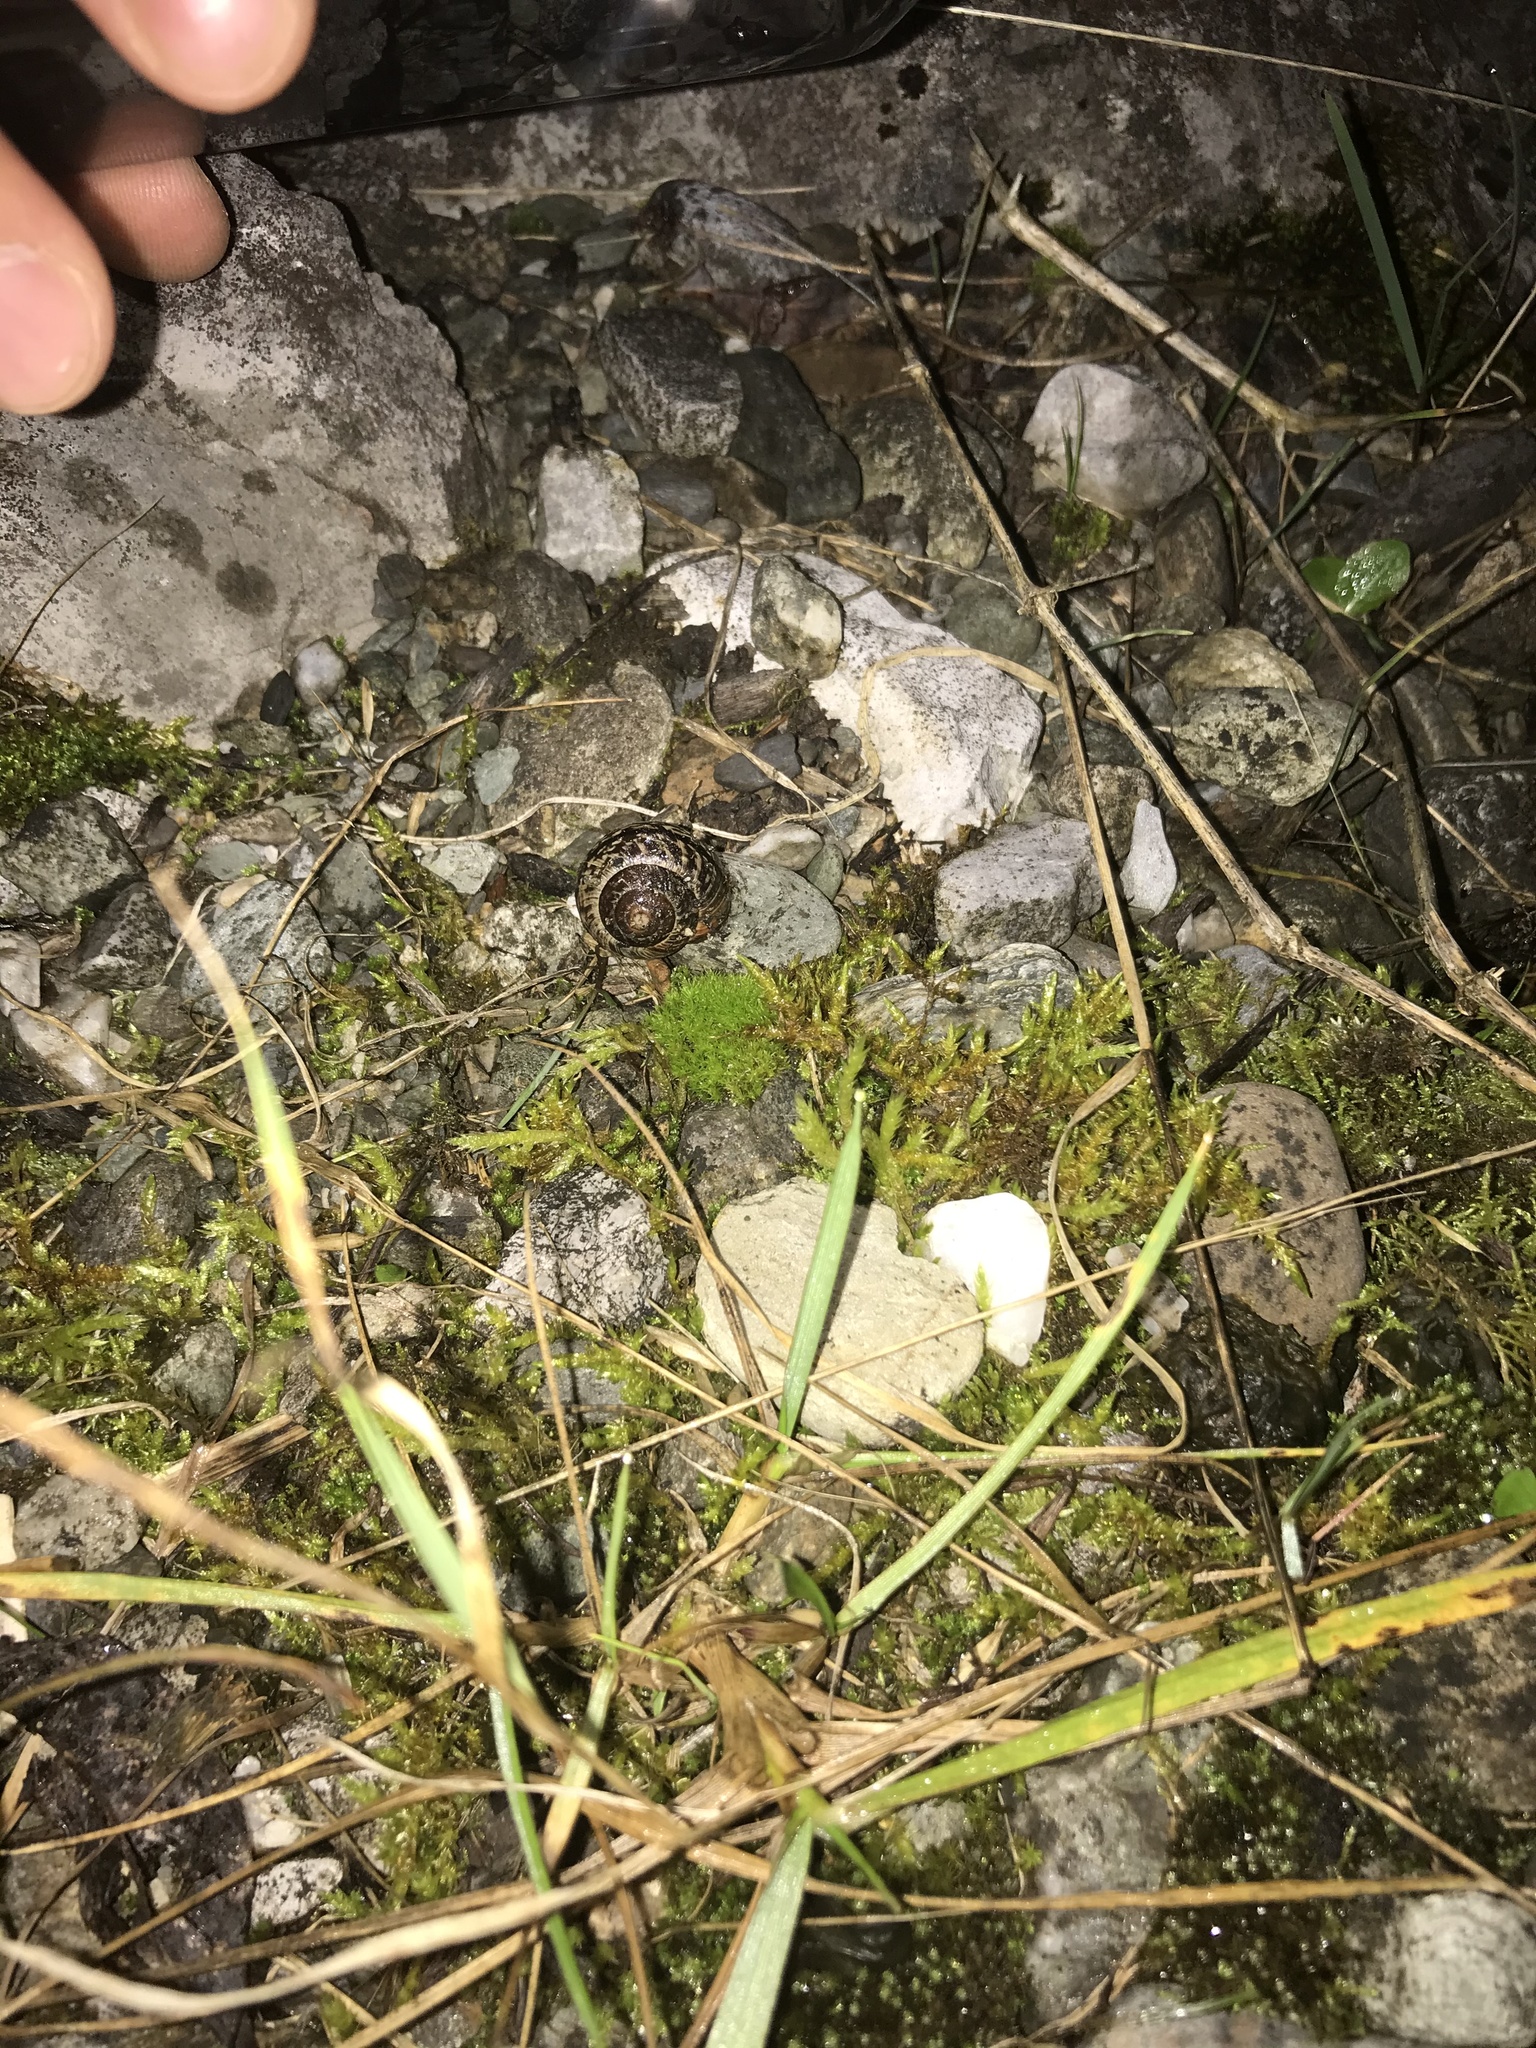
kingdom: Animalia
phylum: Mollusca
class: Gastropoda
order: Stylommatophora
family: Helicidae
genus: Arianta
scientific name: Arianta arbustorum
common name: Copse snail
